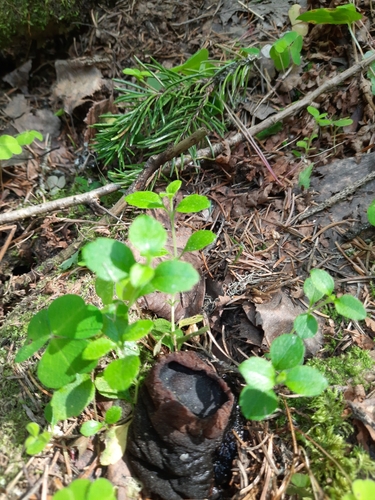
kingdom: Fungi
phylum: Ascomycota
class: Pezizomycetes
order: Pezizales
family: Sarcosomataceae
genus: Sarcosoma
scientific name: Sarcosoma globosum
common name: Charred-pancake cup
